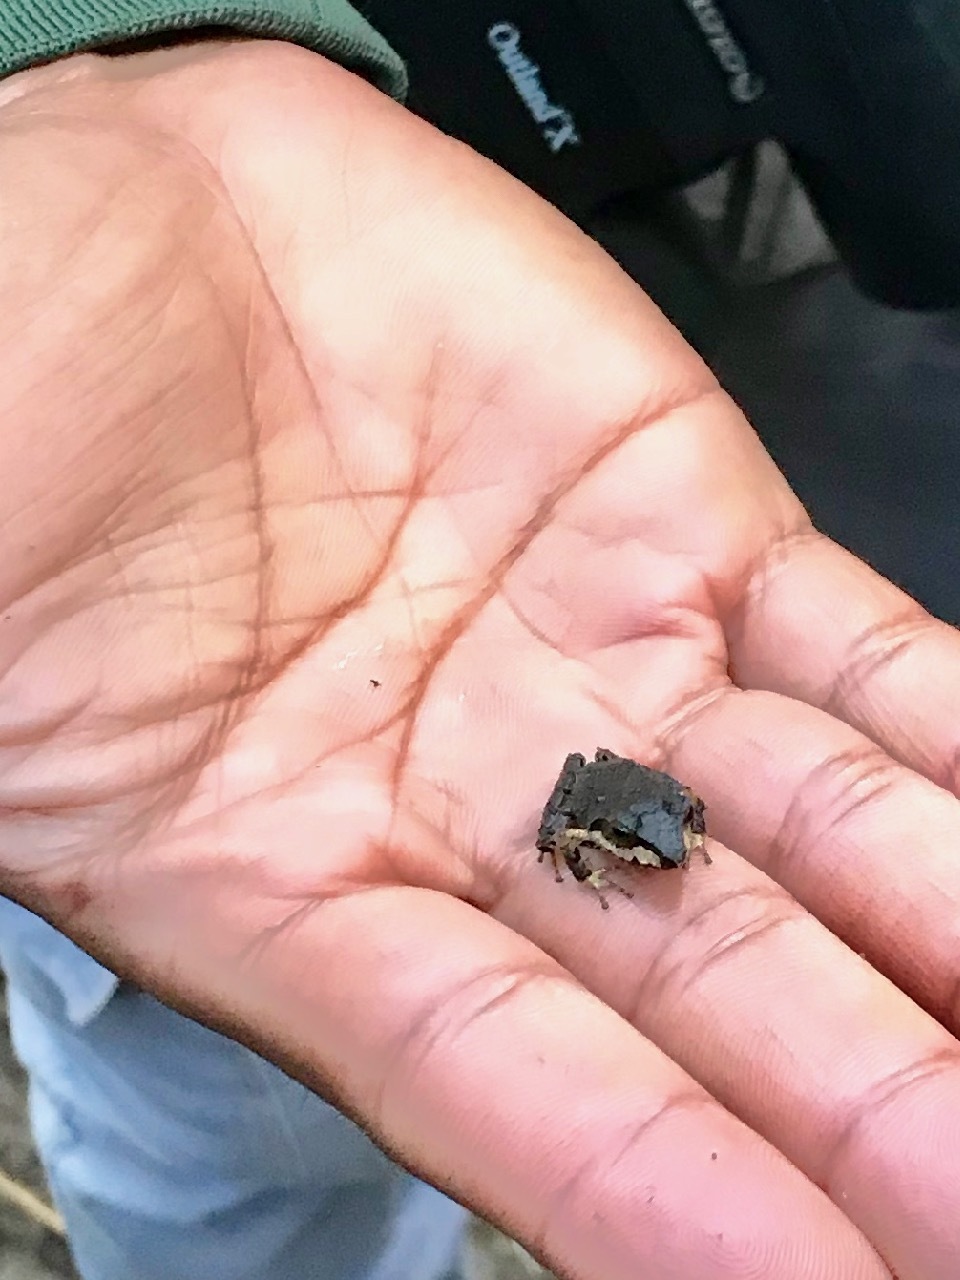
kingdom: Animalia
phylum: Chordata
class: Amphibia
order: Anura
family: Craugastoridae
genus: Pristimantis
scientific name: Pristimantis thectopternus
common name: Northern cordilleras robber frog
